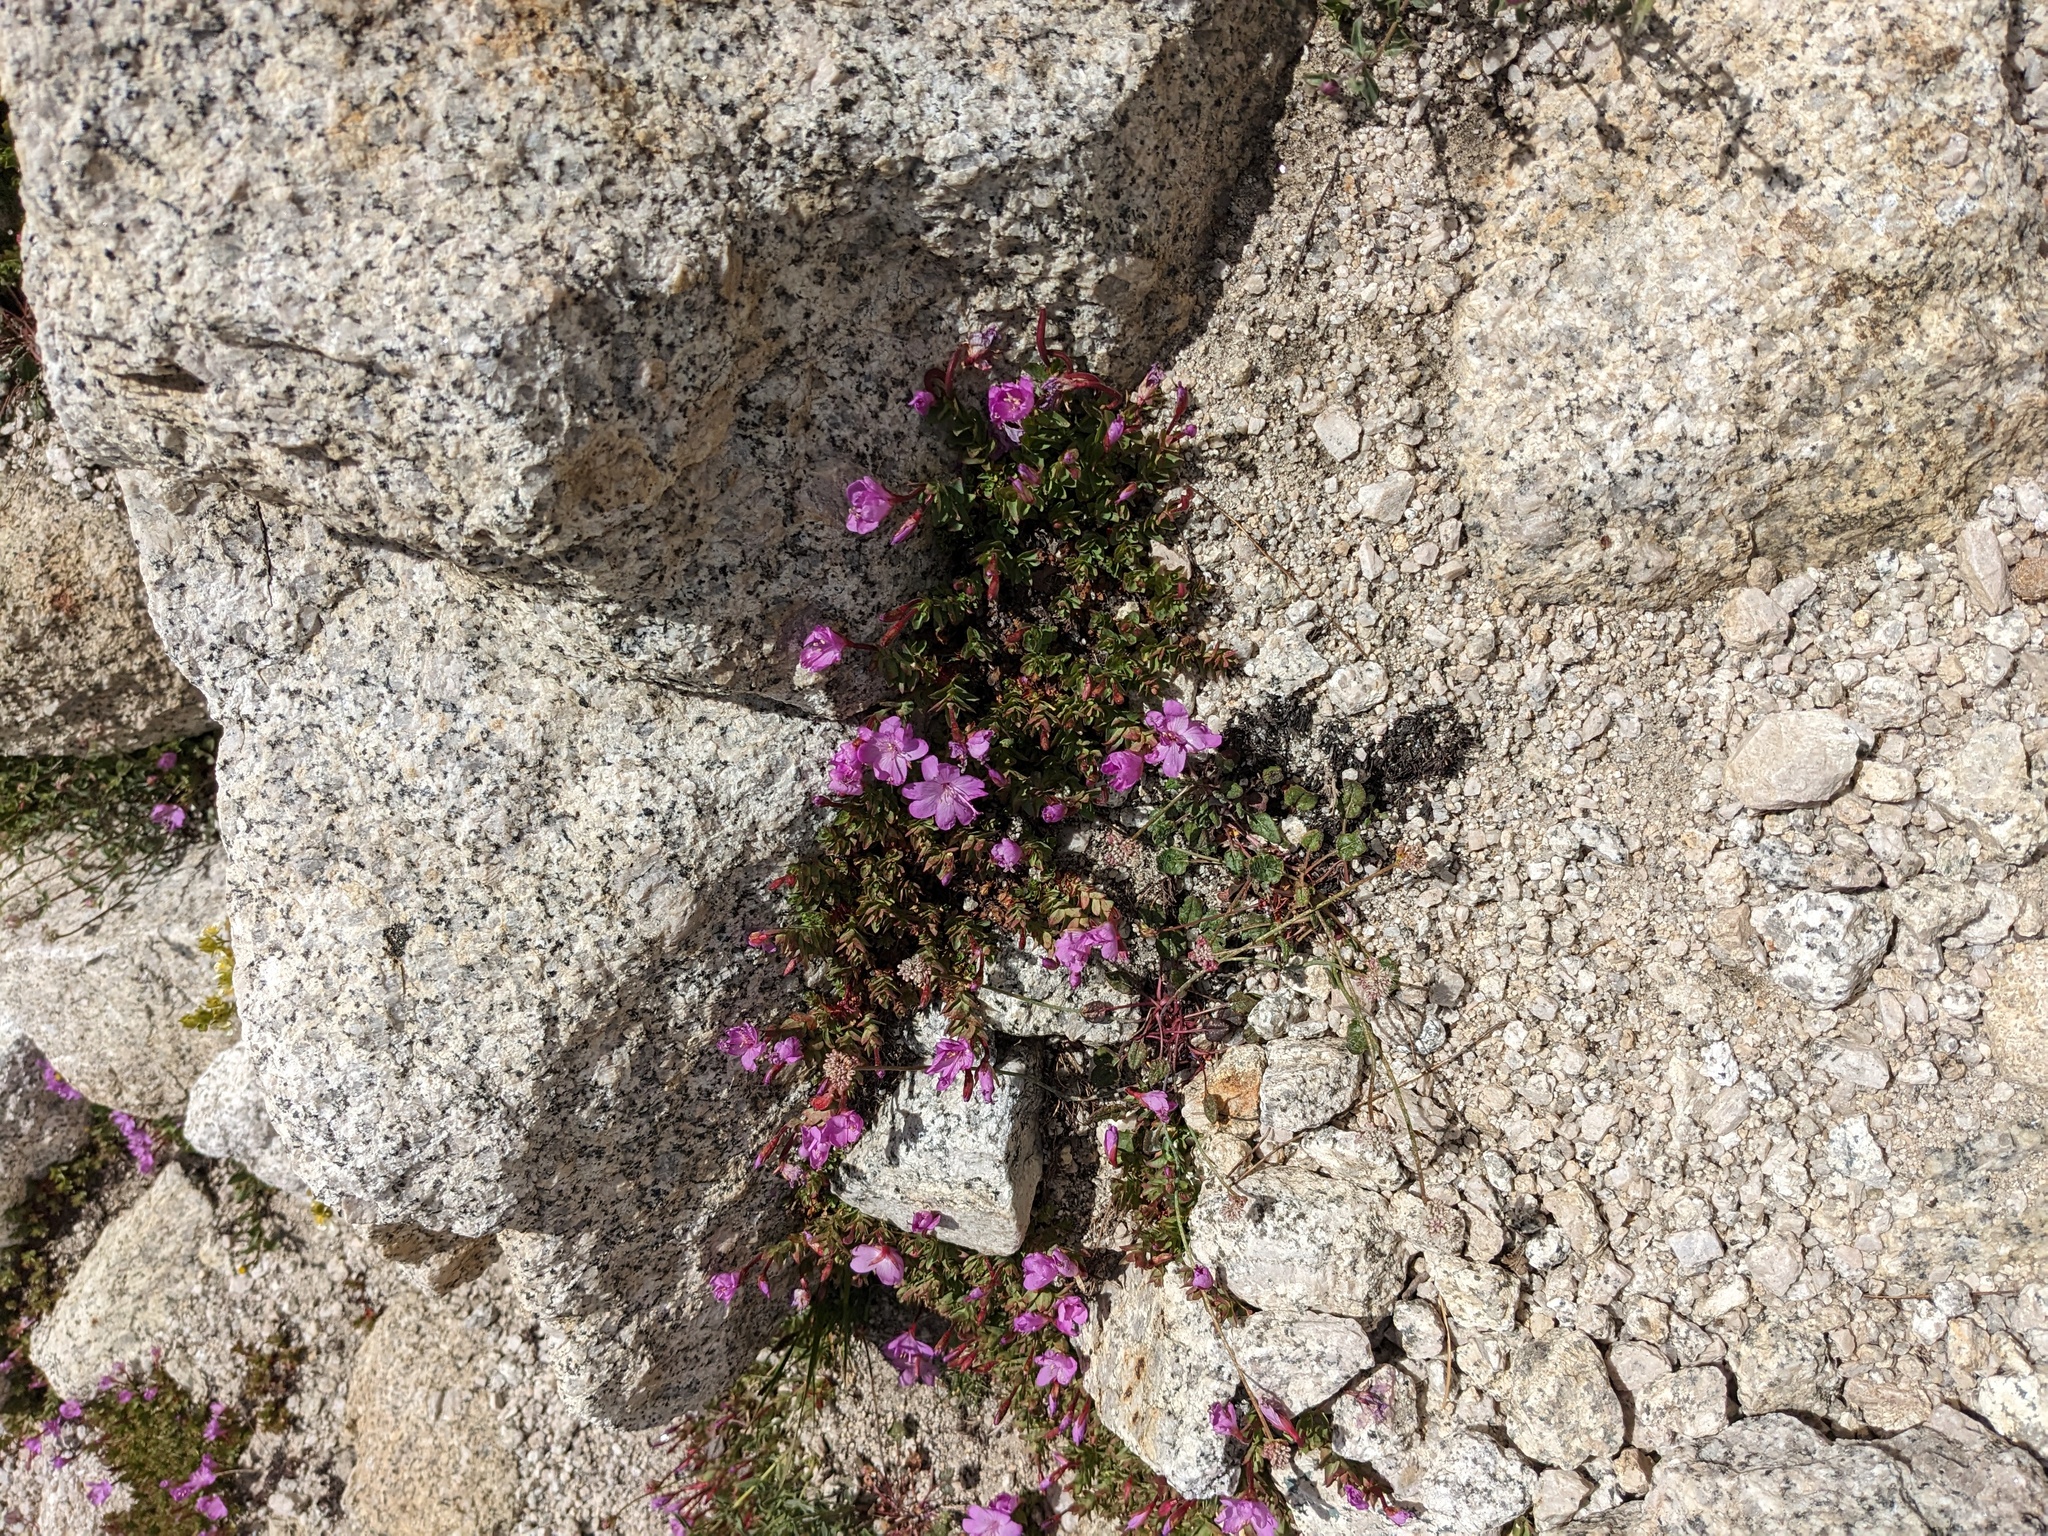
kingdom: Plantae
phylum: Tracheophyta
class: Magnoliopsida
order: Myrtales
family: Onagraceae
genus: Epilobium
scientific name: Epilobium obcordatum
